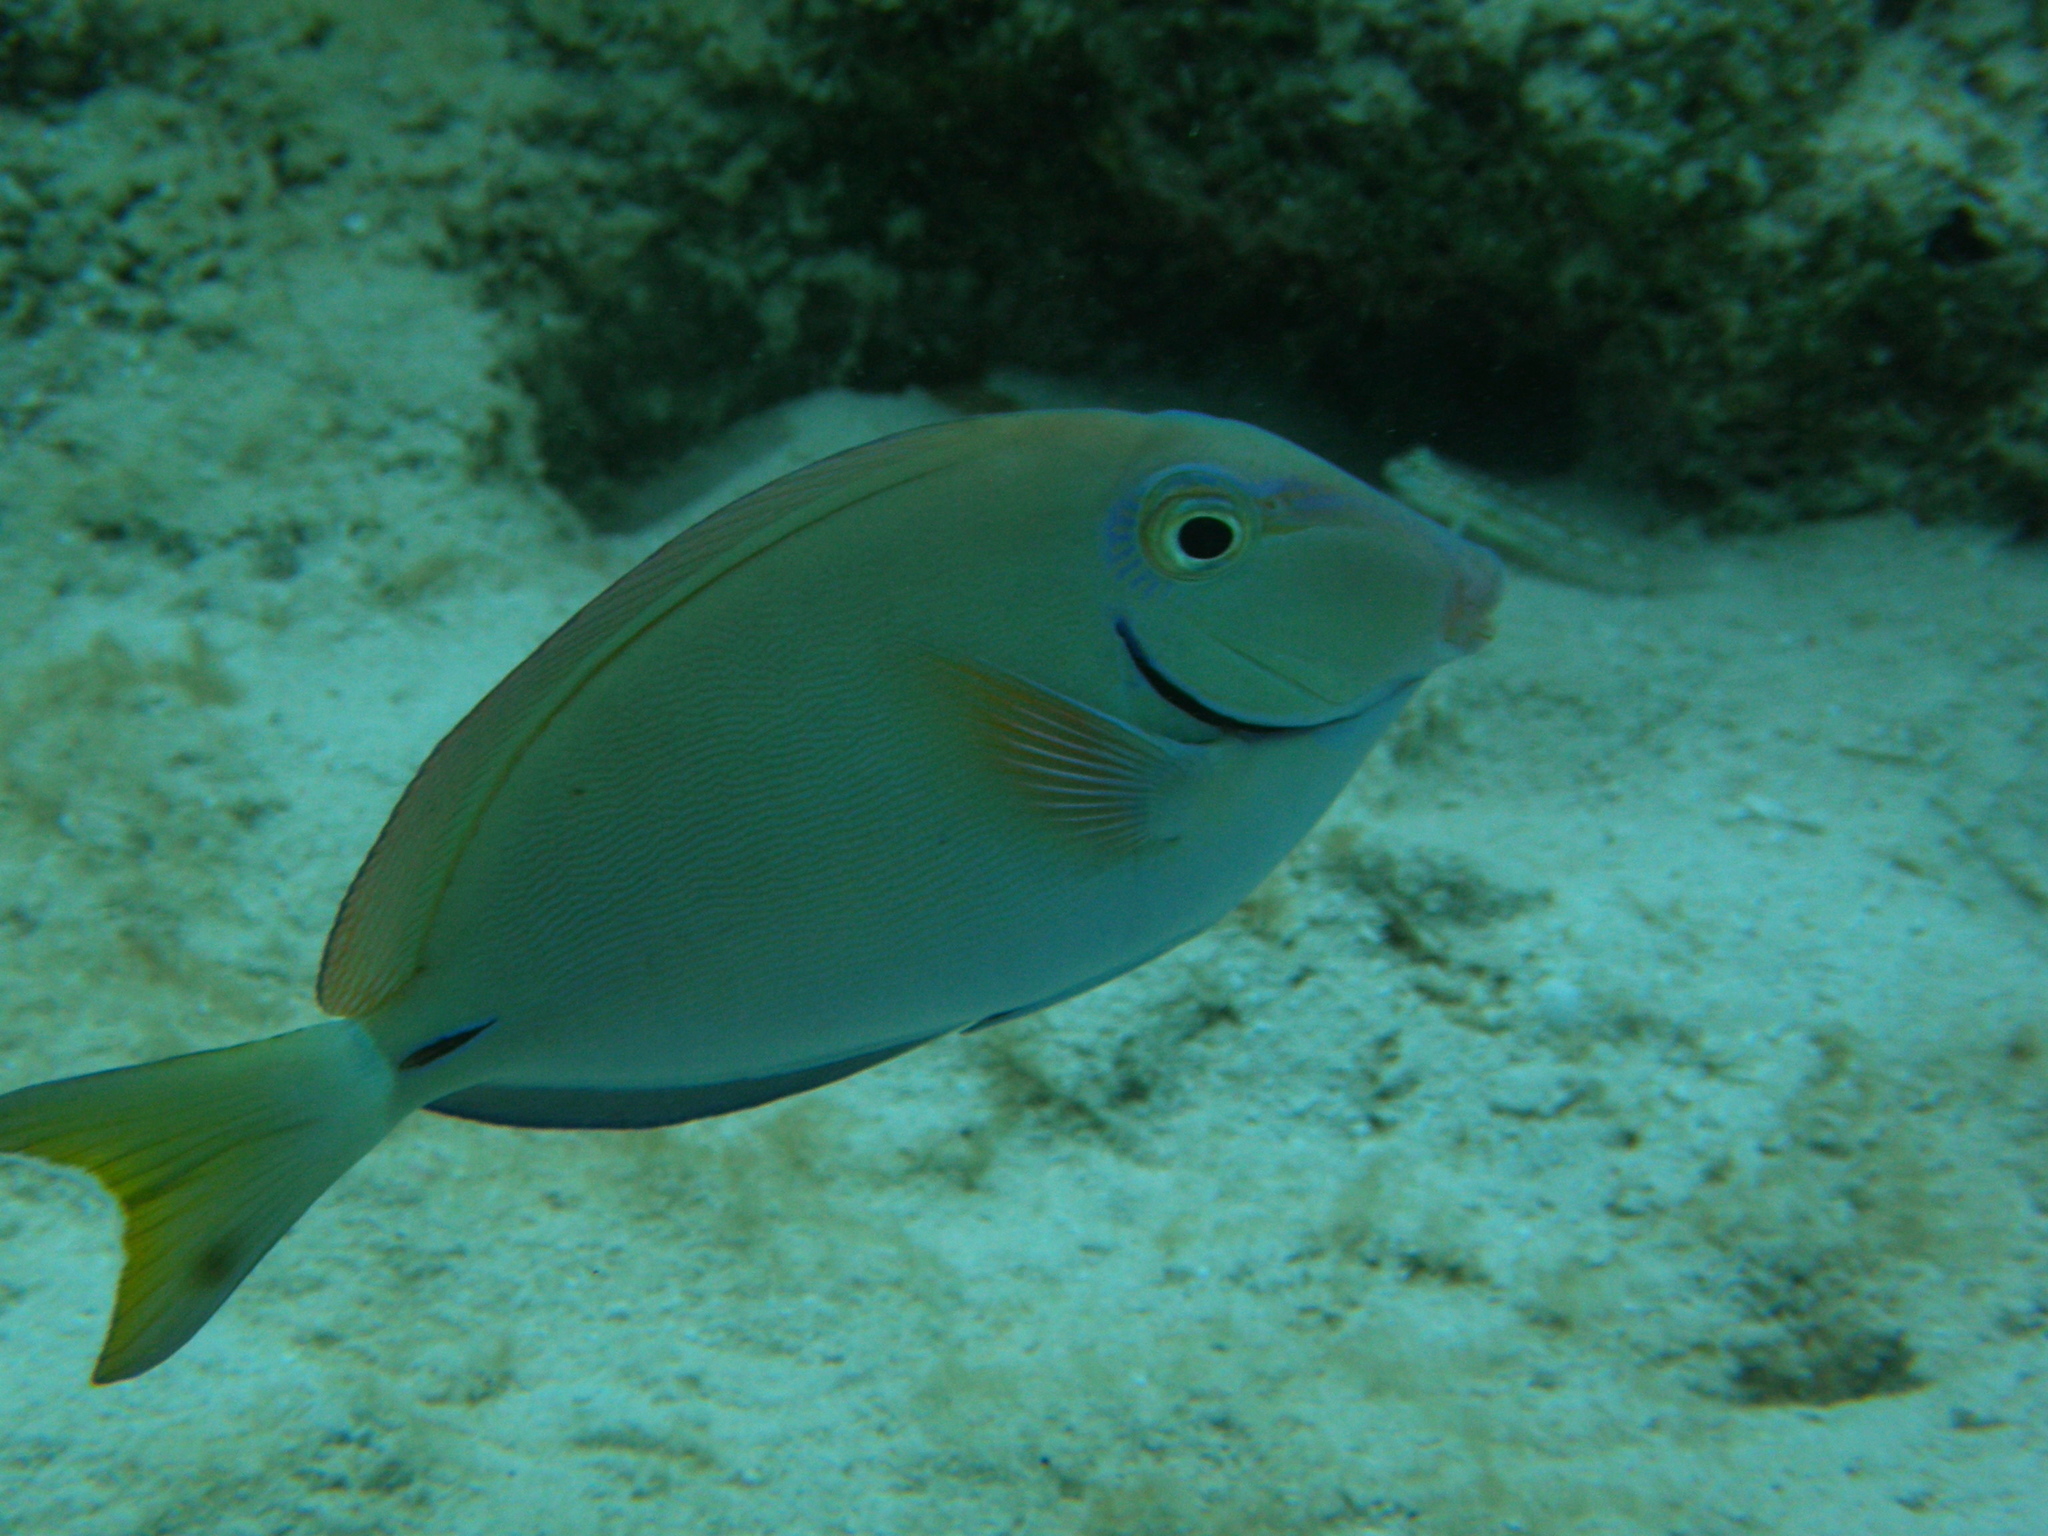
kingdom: Animalia
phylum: Chordata
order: Perciformes
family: Acanthuridae
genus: Acanthurus
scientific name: Acanthurus bahianus
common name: Ocean surgeon
